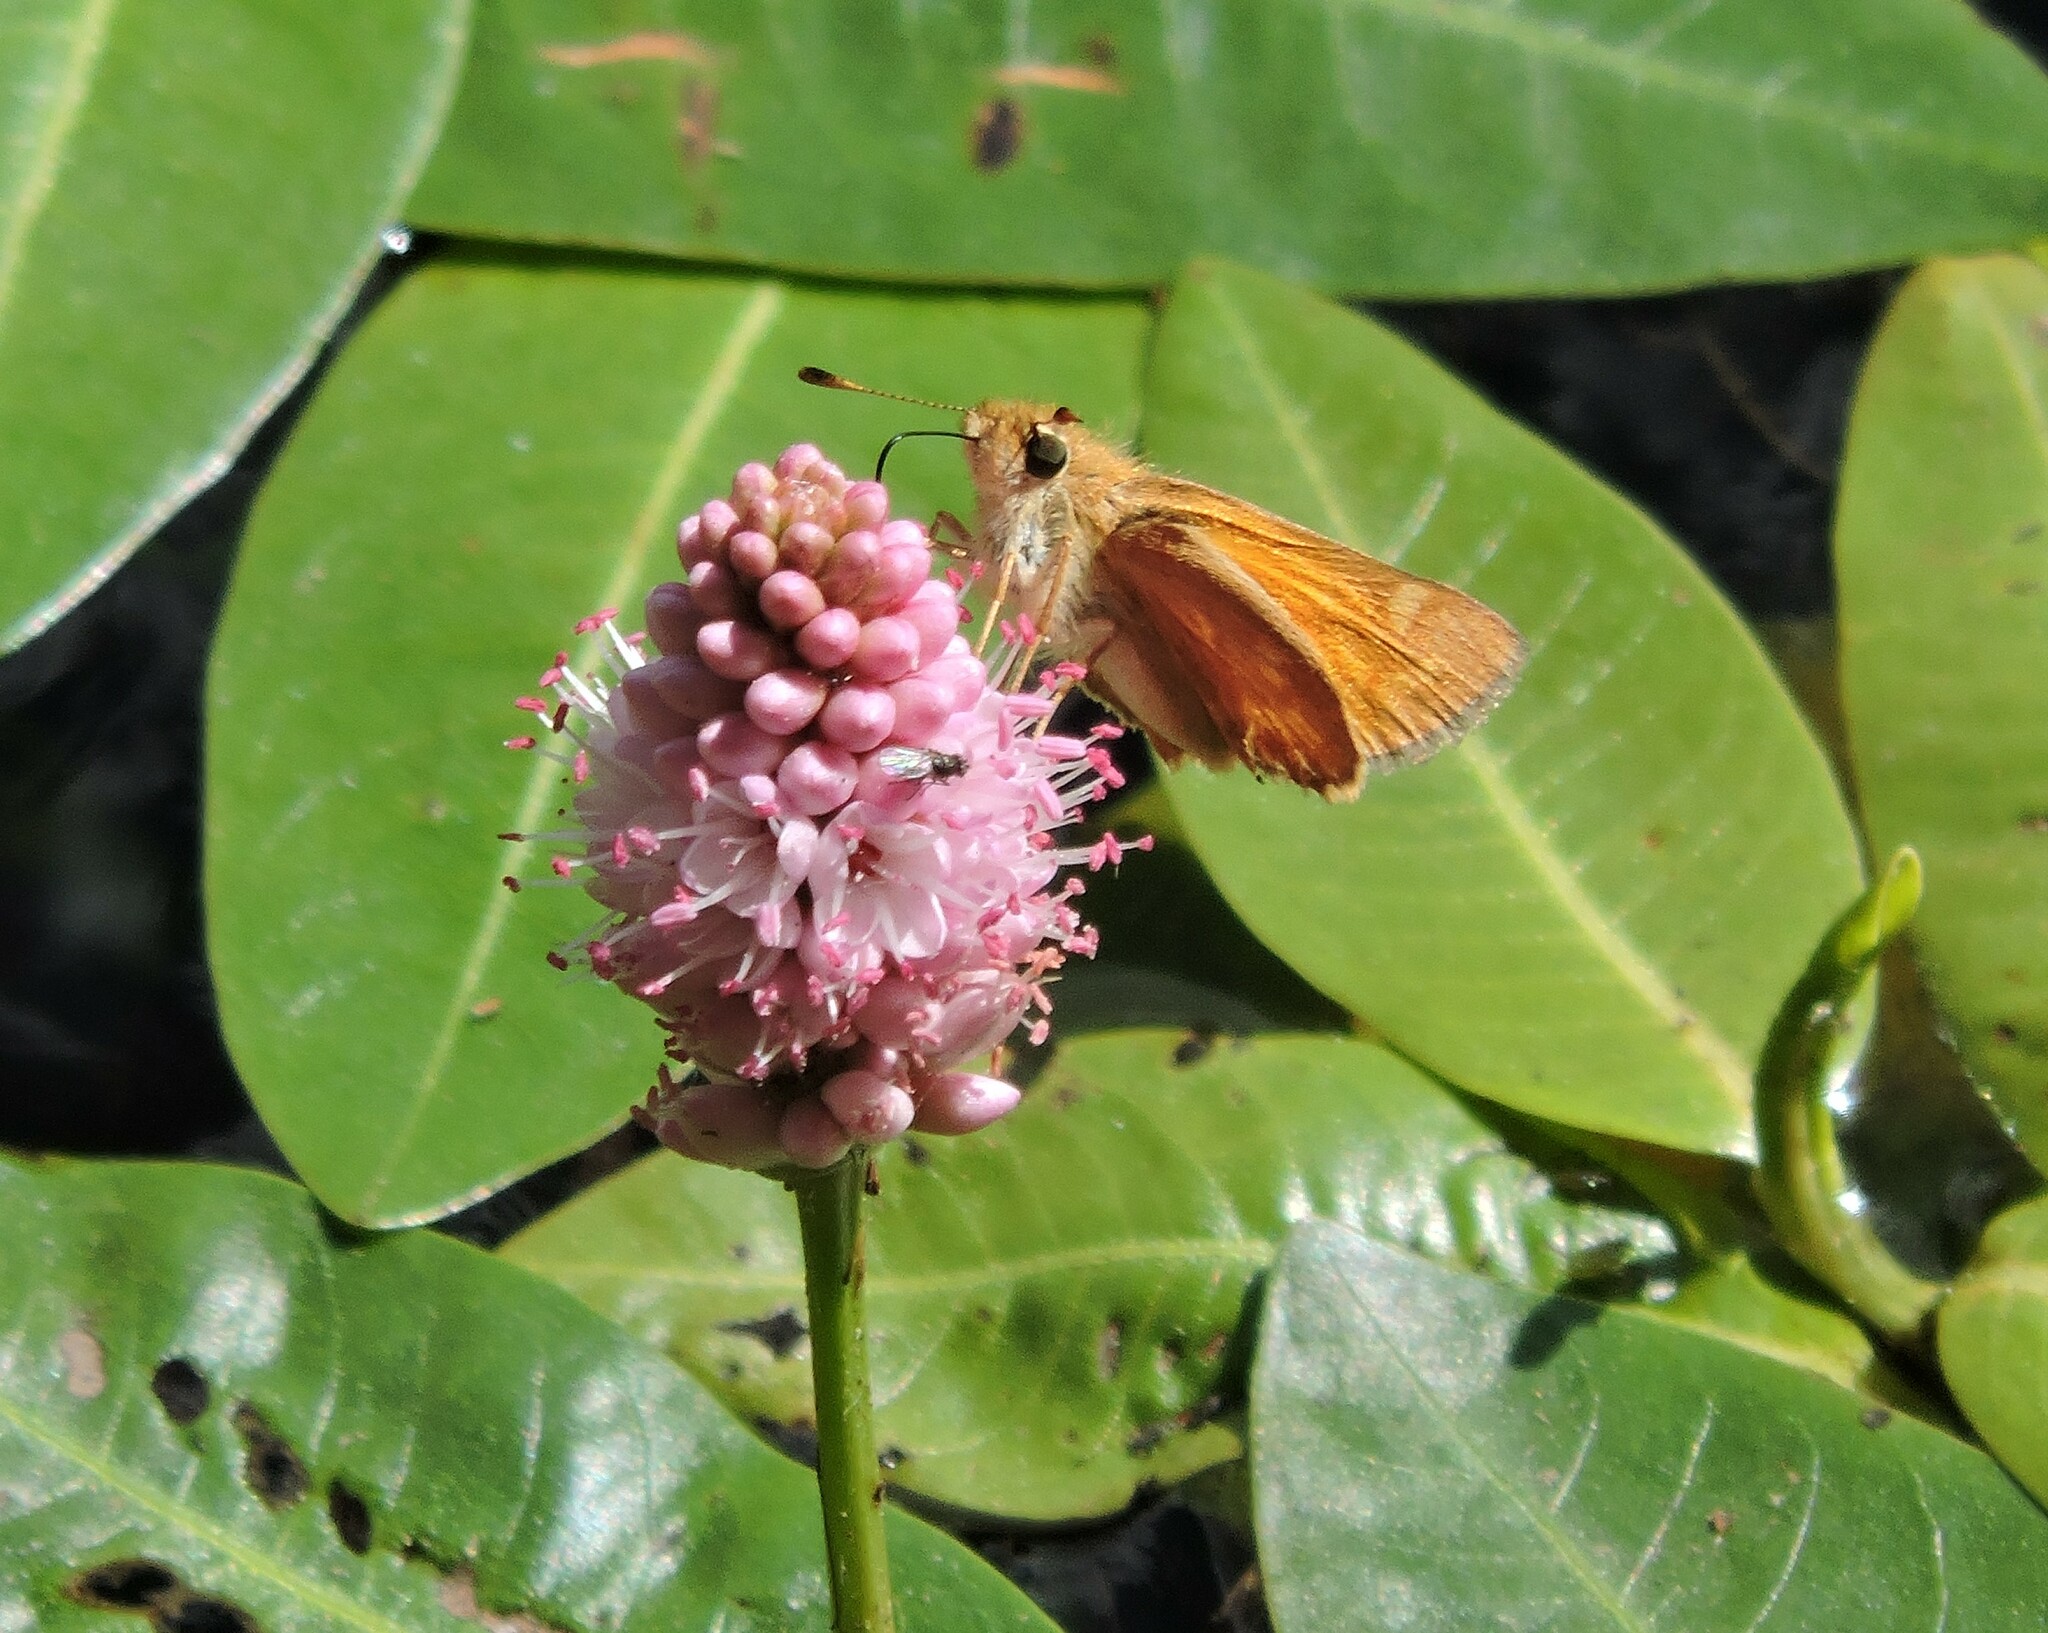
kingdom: Animalia
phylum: Arthropoda
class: Insecta
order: Lepidoptera
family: Hesperiidae
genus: Ochlodes
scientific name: Ochlodes sylvanoides
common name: Woodland skipper
